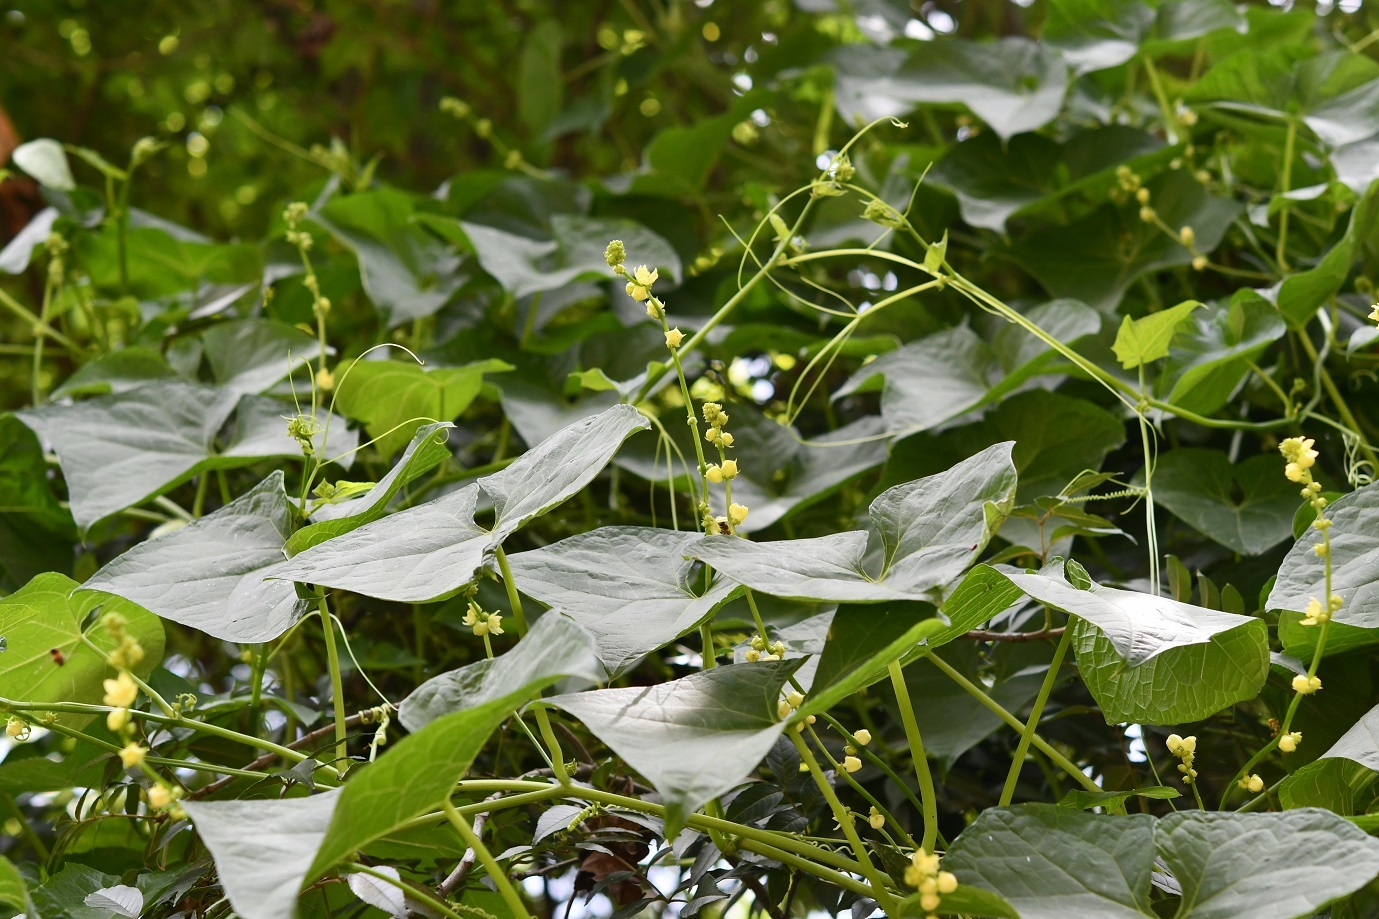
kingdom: Plantae
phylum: Tracheophyta
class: Magnoliopsida
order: Cucurbitales
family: Cucurbitaceae
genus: Sechium
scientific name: Sechium edule
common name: Chayote
